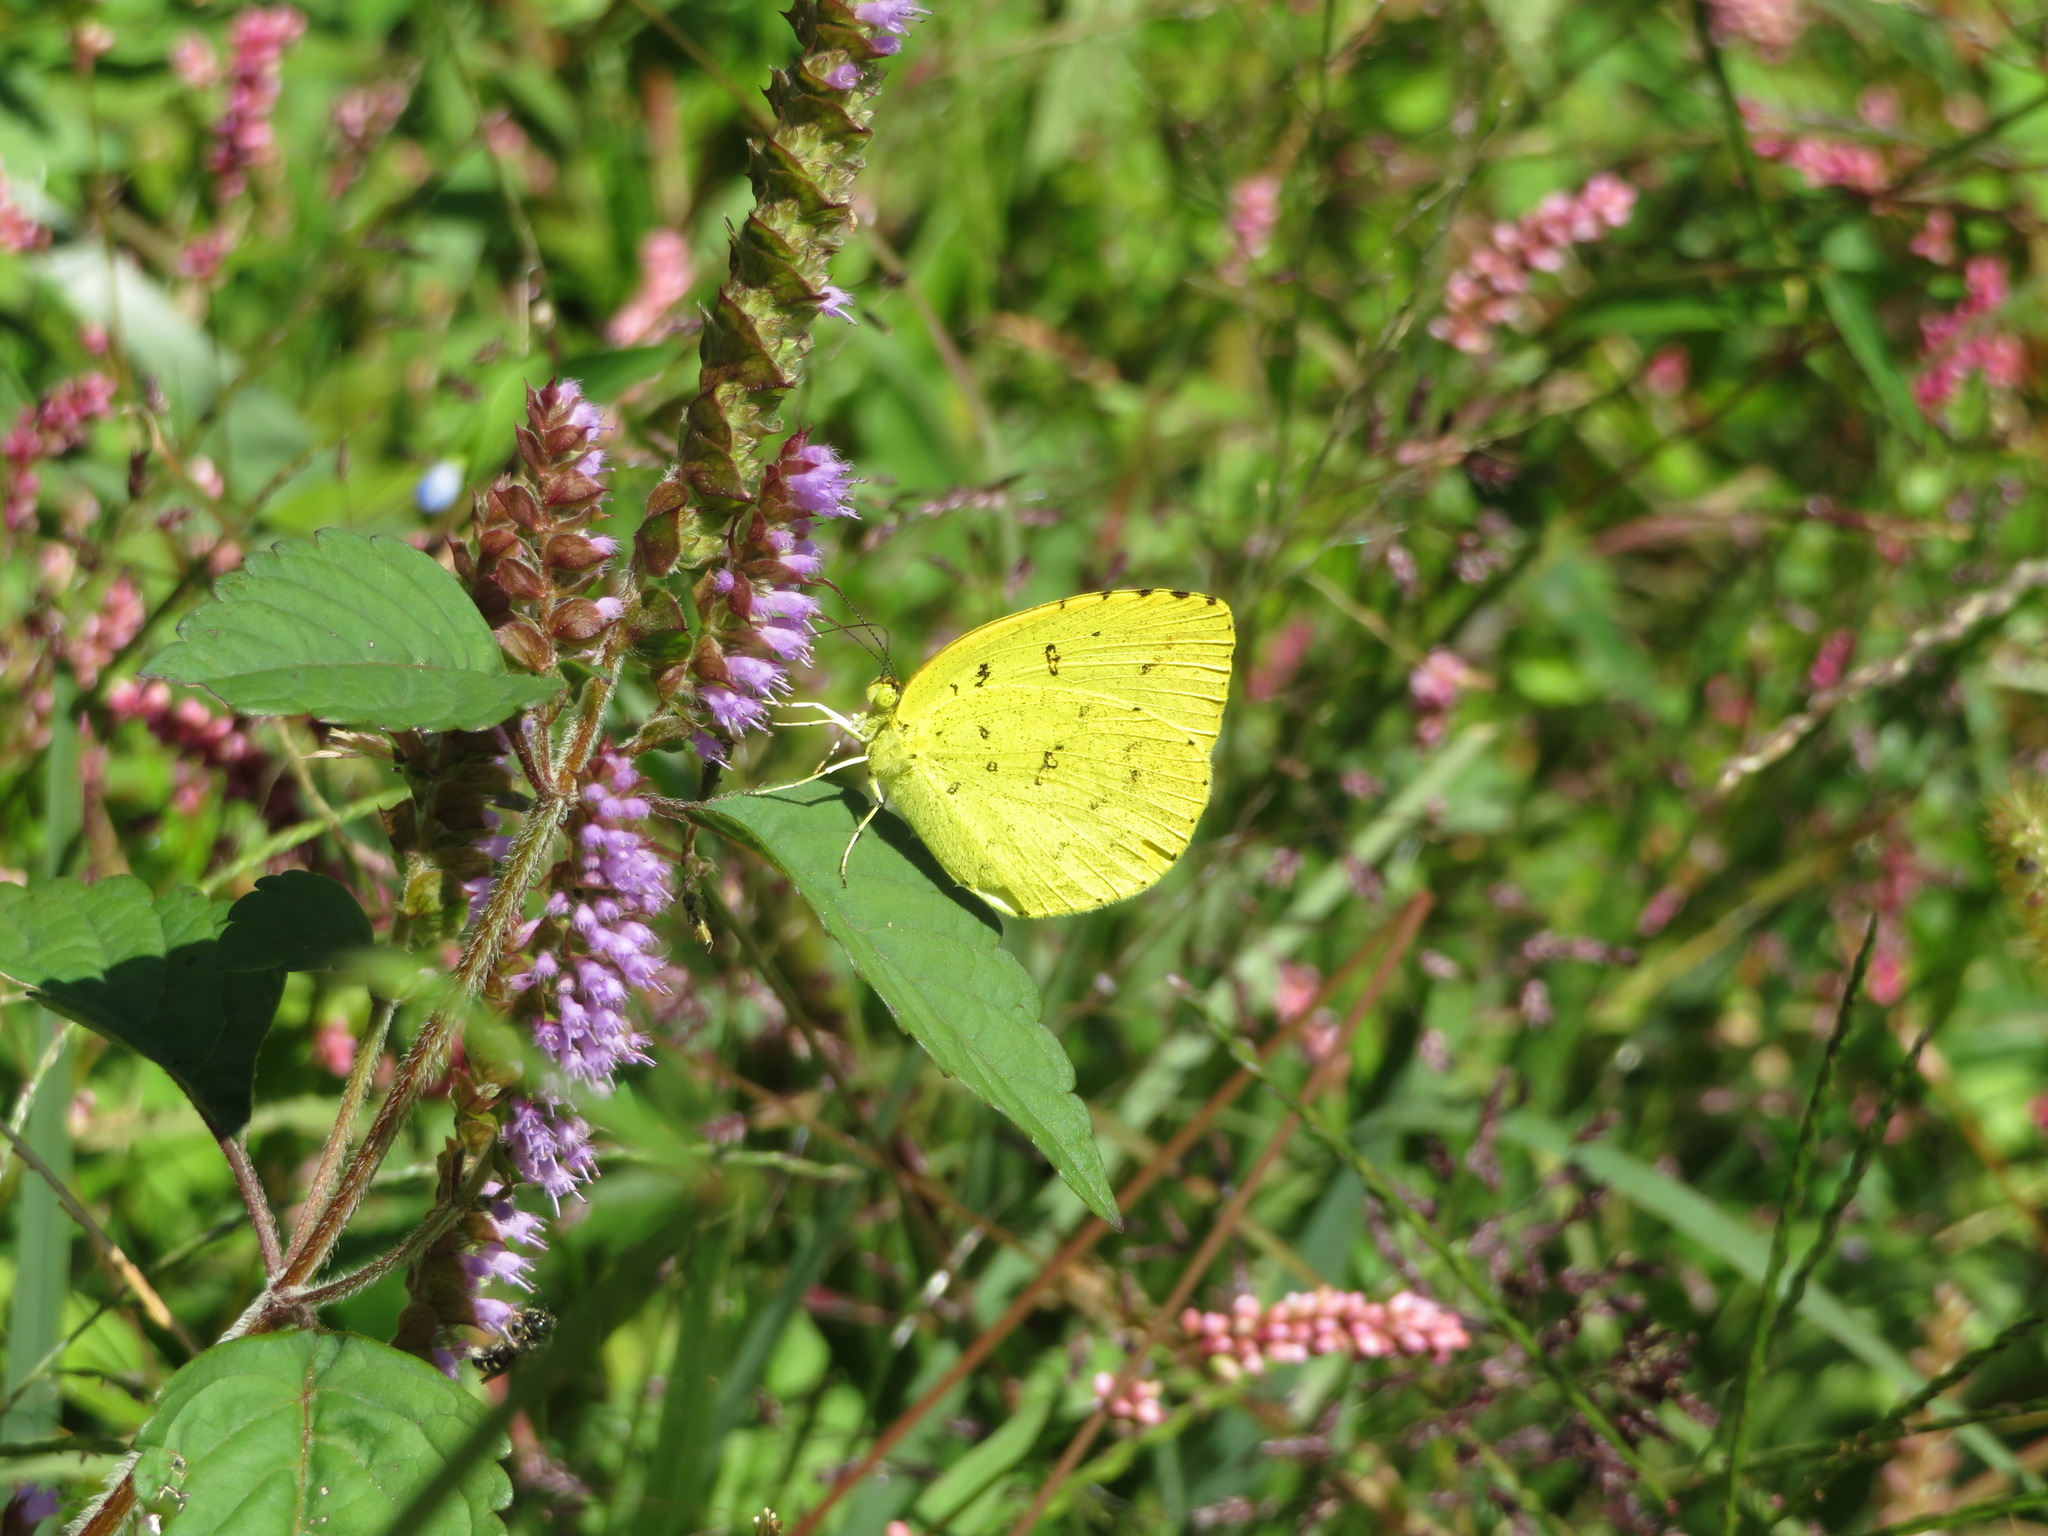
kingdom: Animalia
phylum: Arthropoda
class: Insecta
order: Lepidoptera
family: Pieridae
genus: Eurema
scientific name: Eurema mandarina
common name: Japanese common grass yellow
